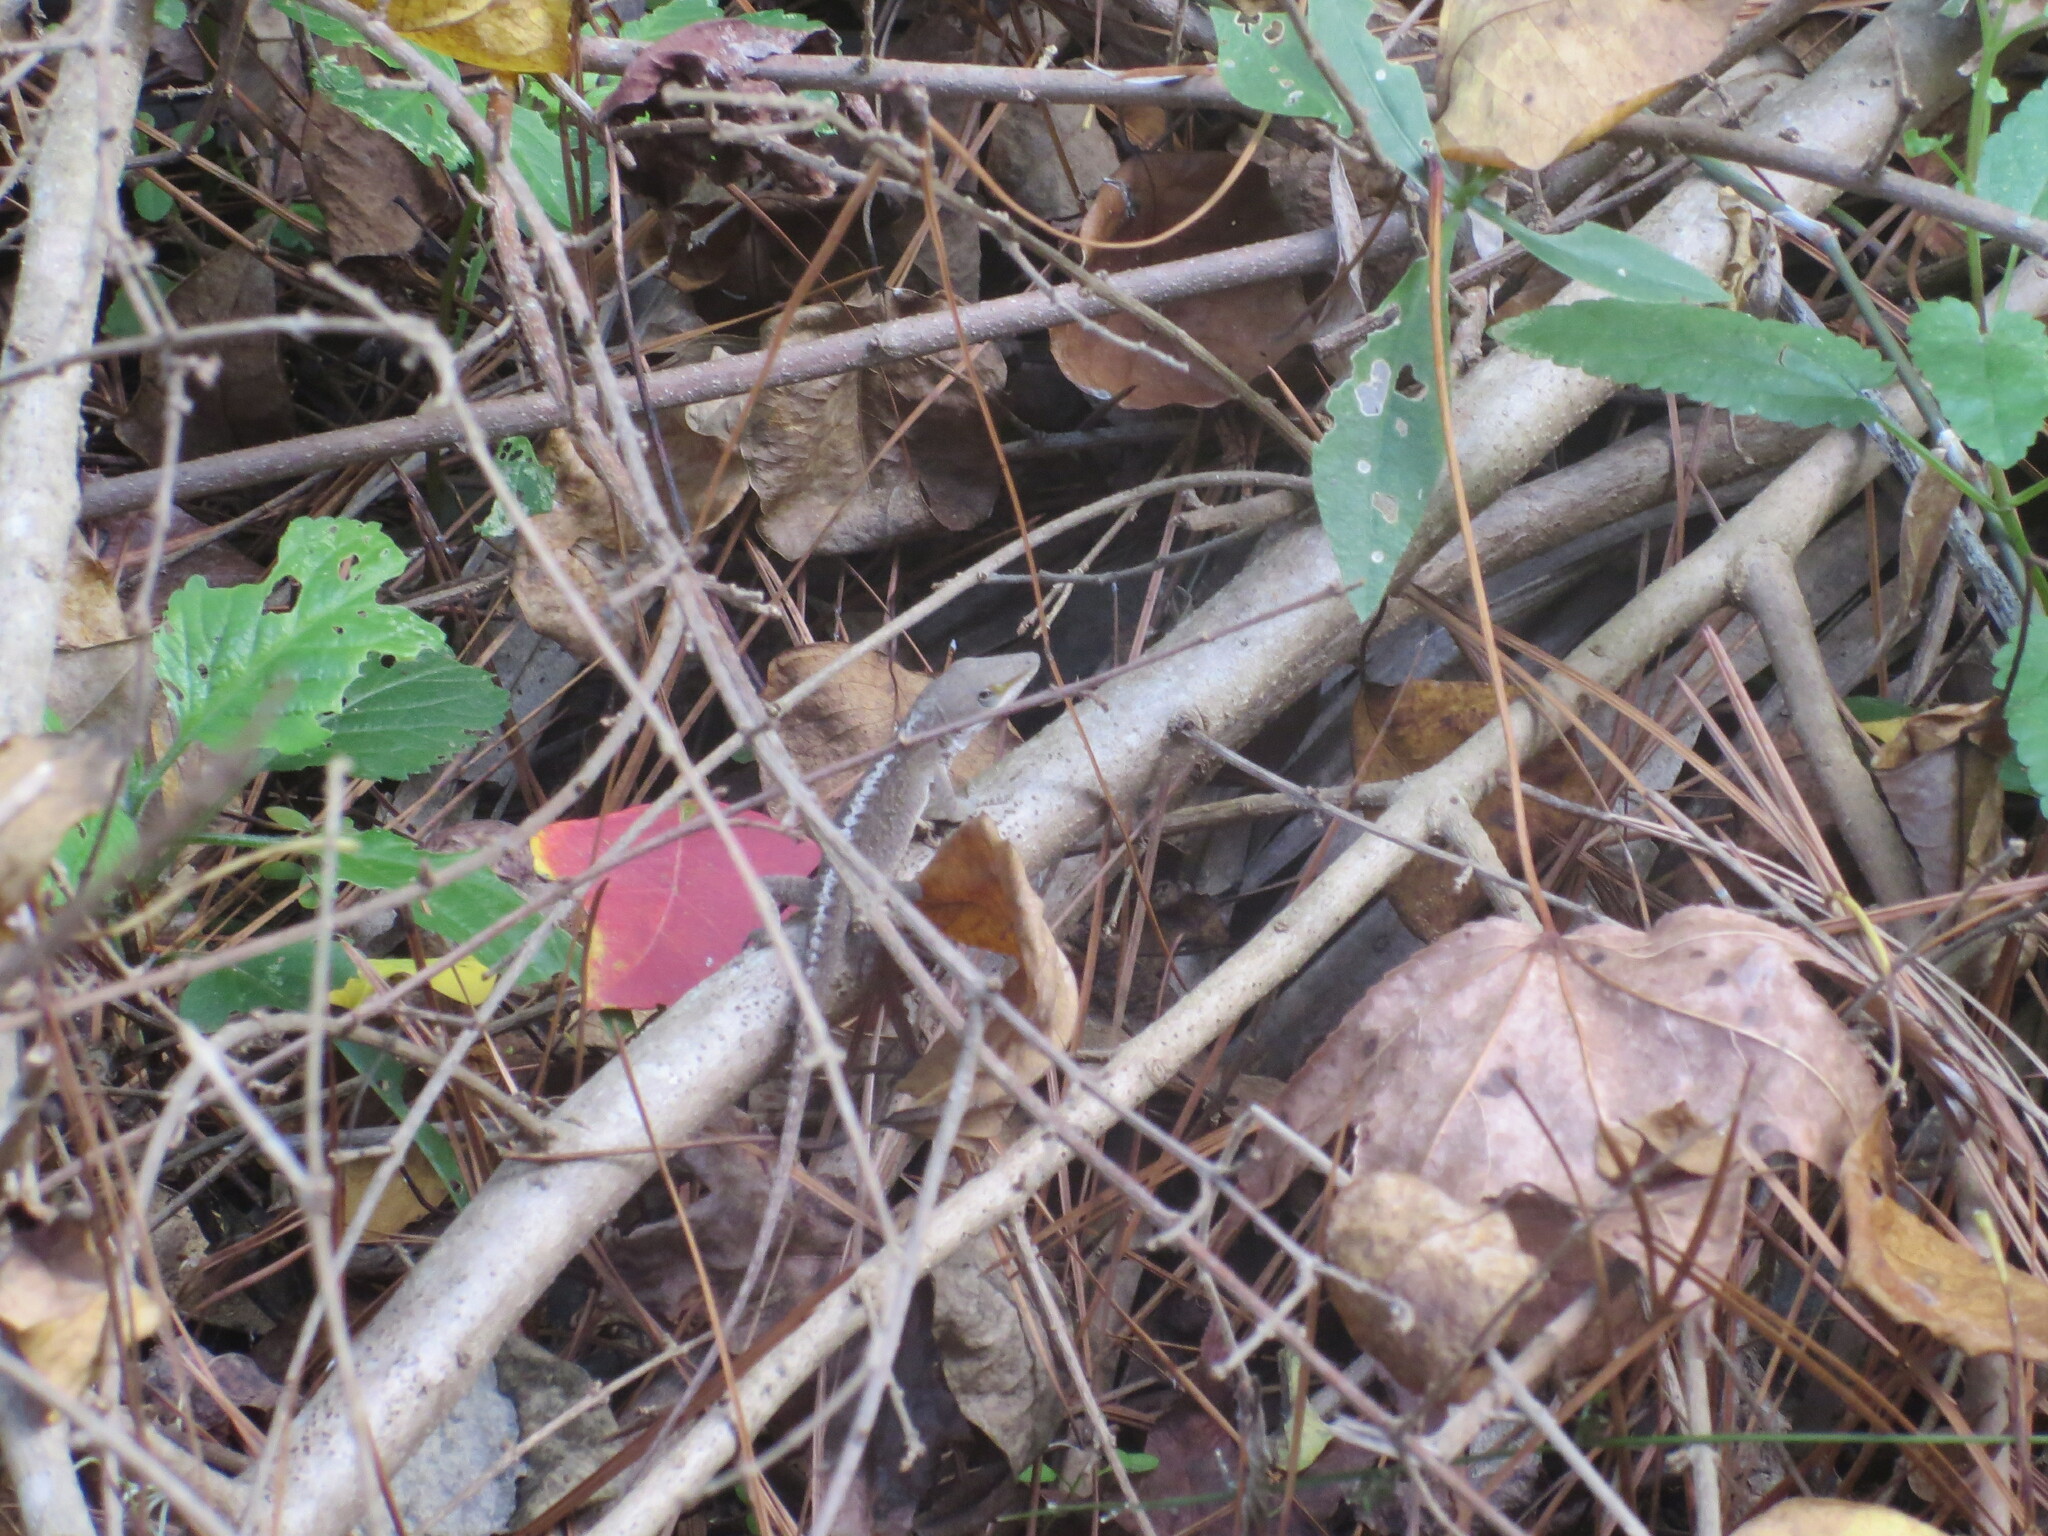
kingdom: Animalia
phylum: Chordata
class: Squamata
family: Dactyloidae
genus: Anolis
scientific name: Anolis carolinensis
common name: Green anole
